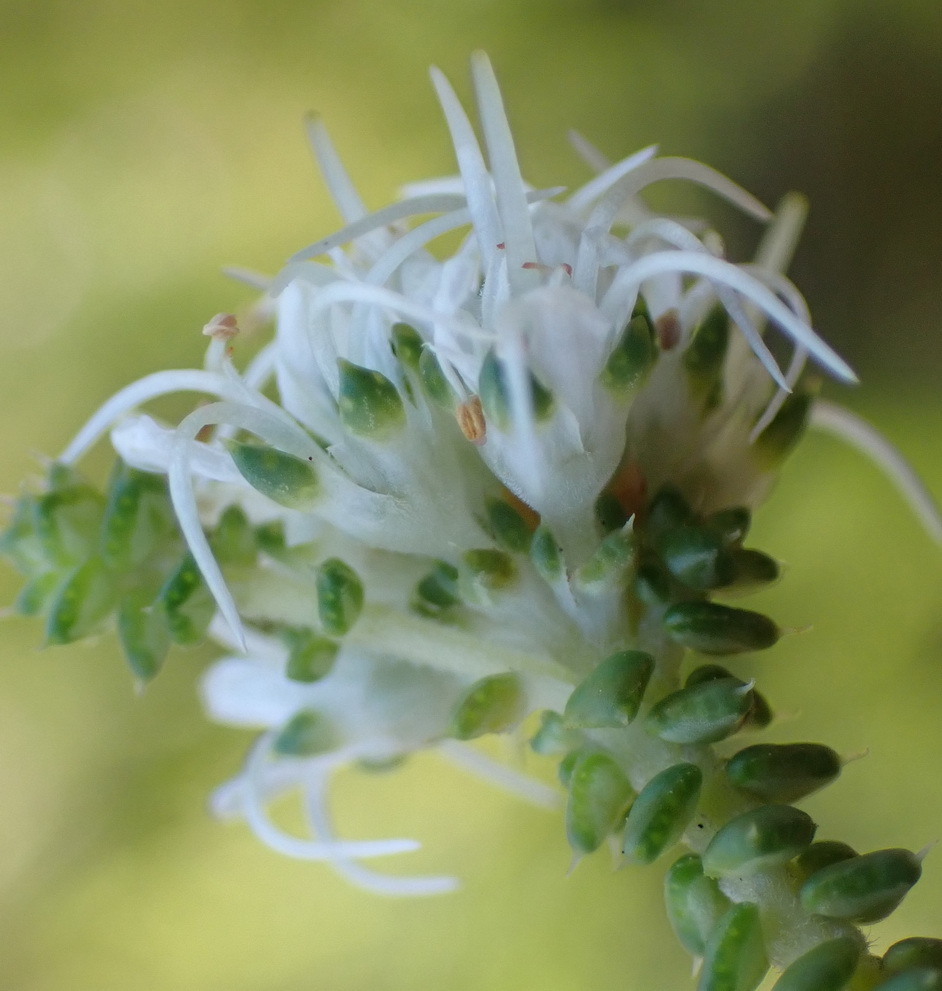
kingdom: Plantae
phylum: Tracheophyta
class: Magnoliopsida
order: Sapindales
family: Rutaceae
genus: Agathosma
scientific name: Agathosma apiculata
